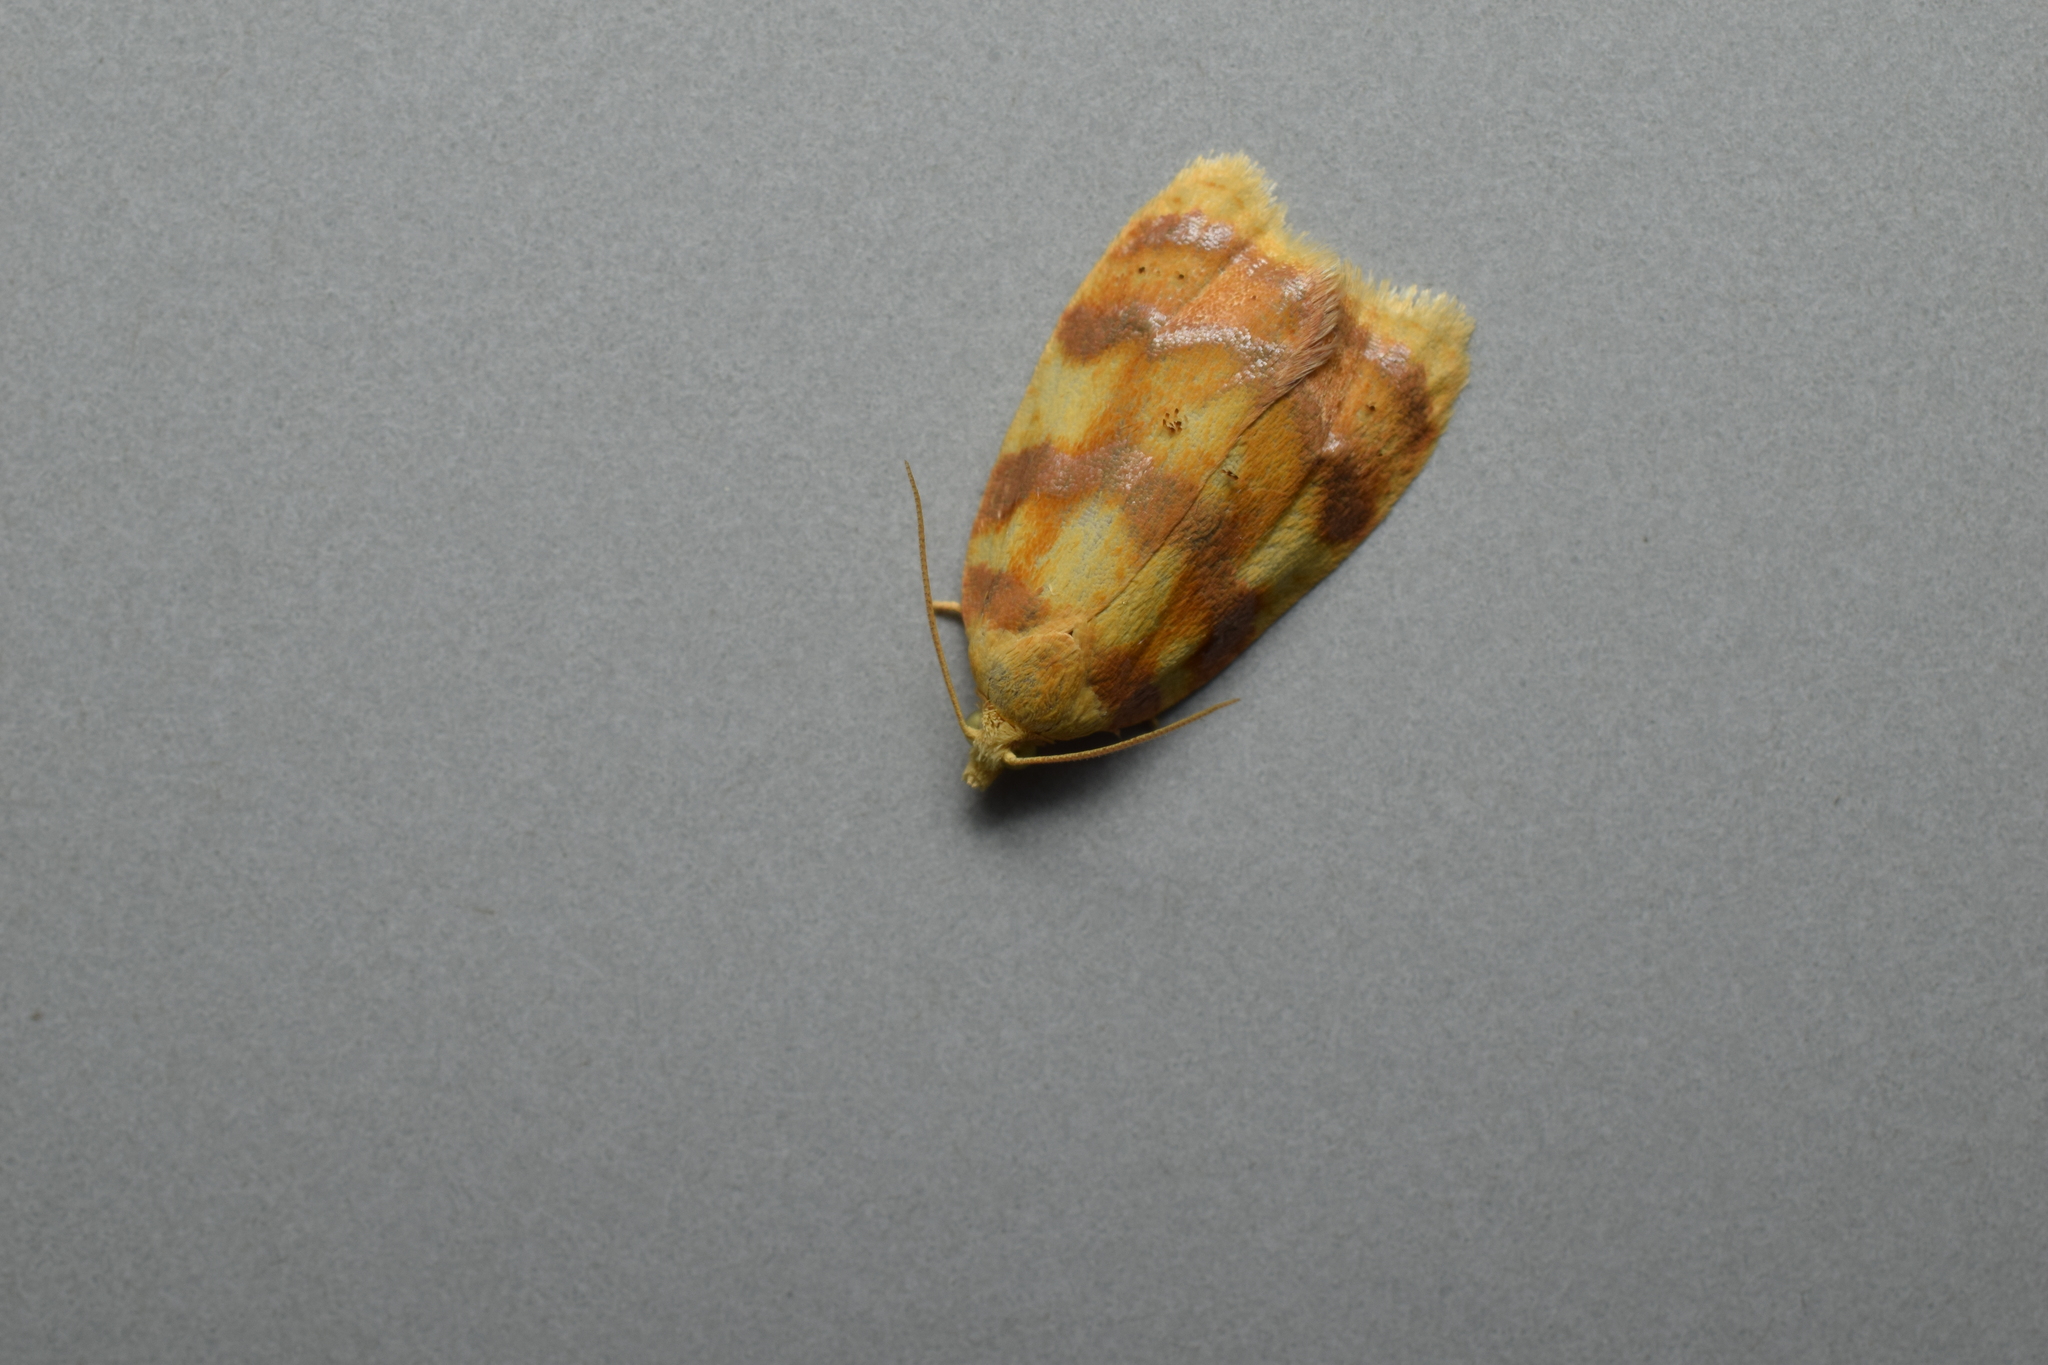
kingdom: Animalia
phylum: Arthropoda
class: Insecta
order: Lepidoptera
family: Tortricidae
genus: Acleris
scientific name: Acleris leechi
